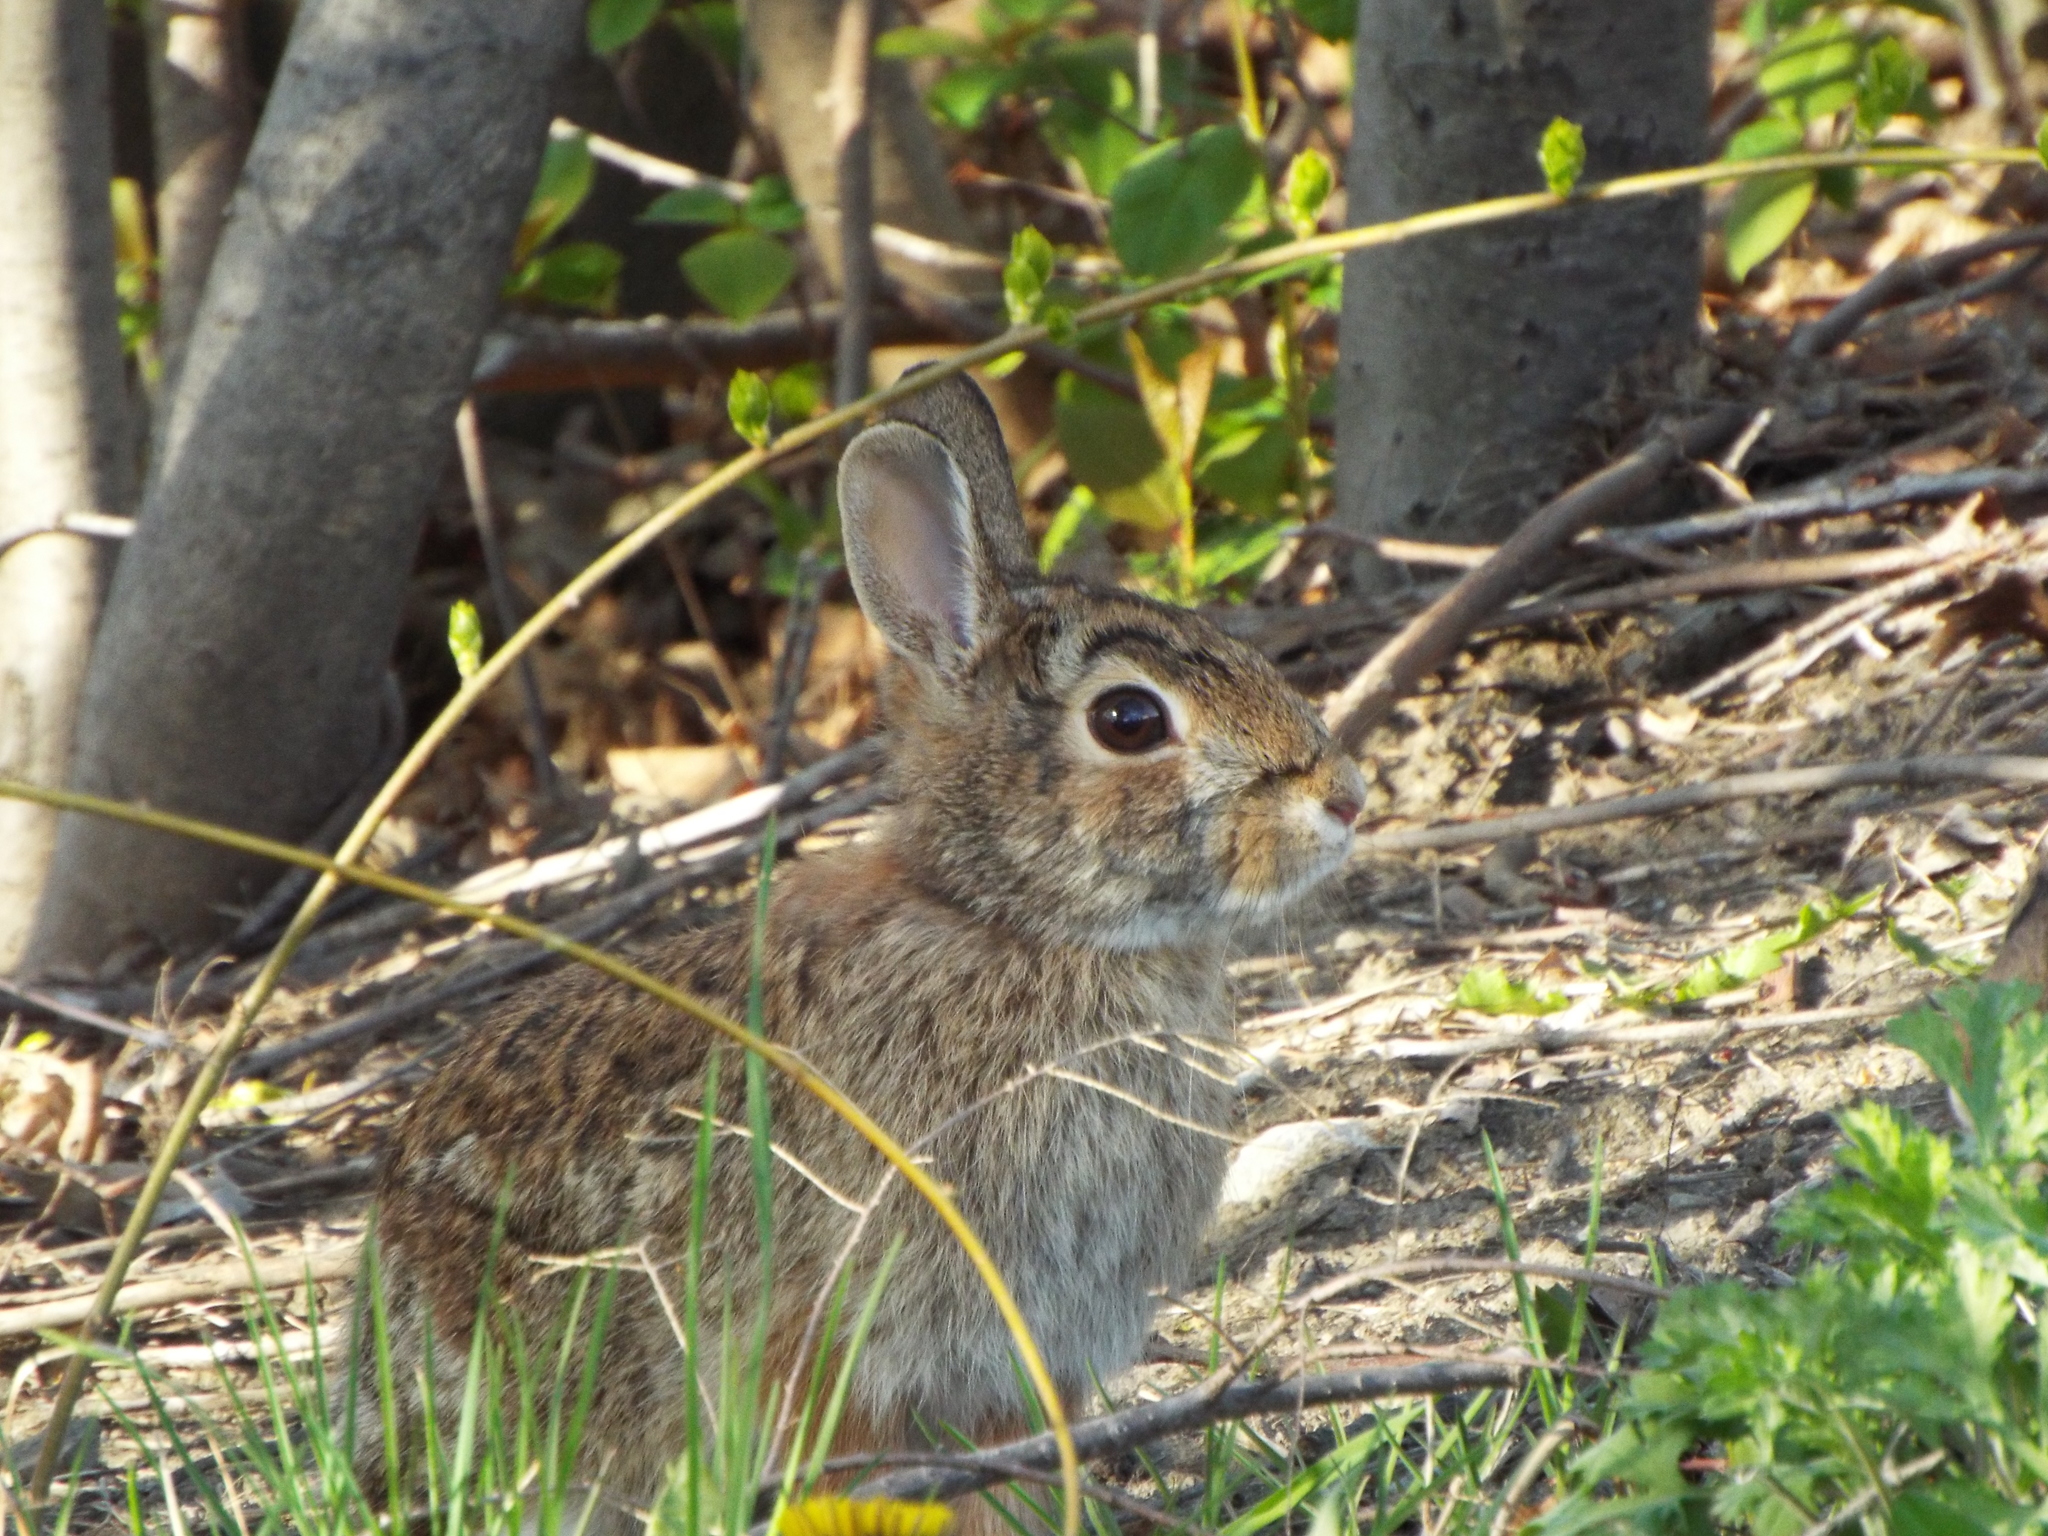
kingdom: Animalia
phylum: Chordata
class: Mammalia
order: Lagomorpha
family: Leporidae
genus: Sylvilagus
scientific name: Sylvilagus floridanus
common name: Eastern cottontail
